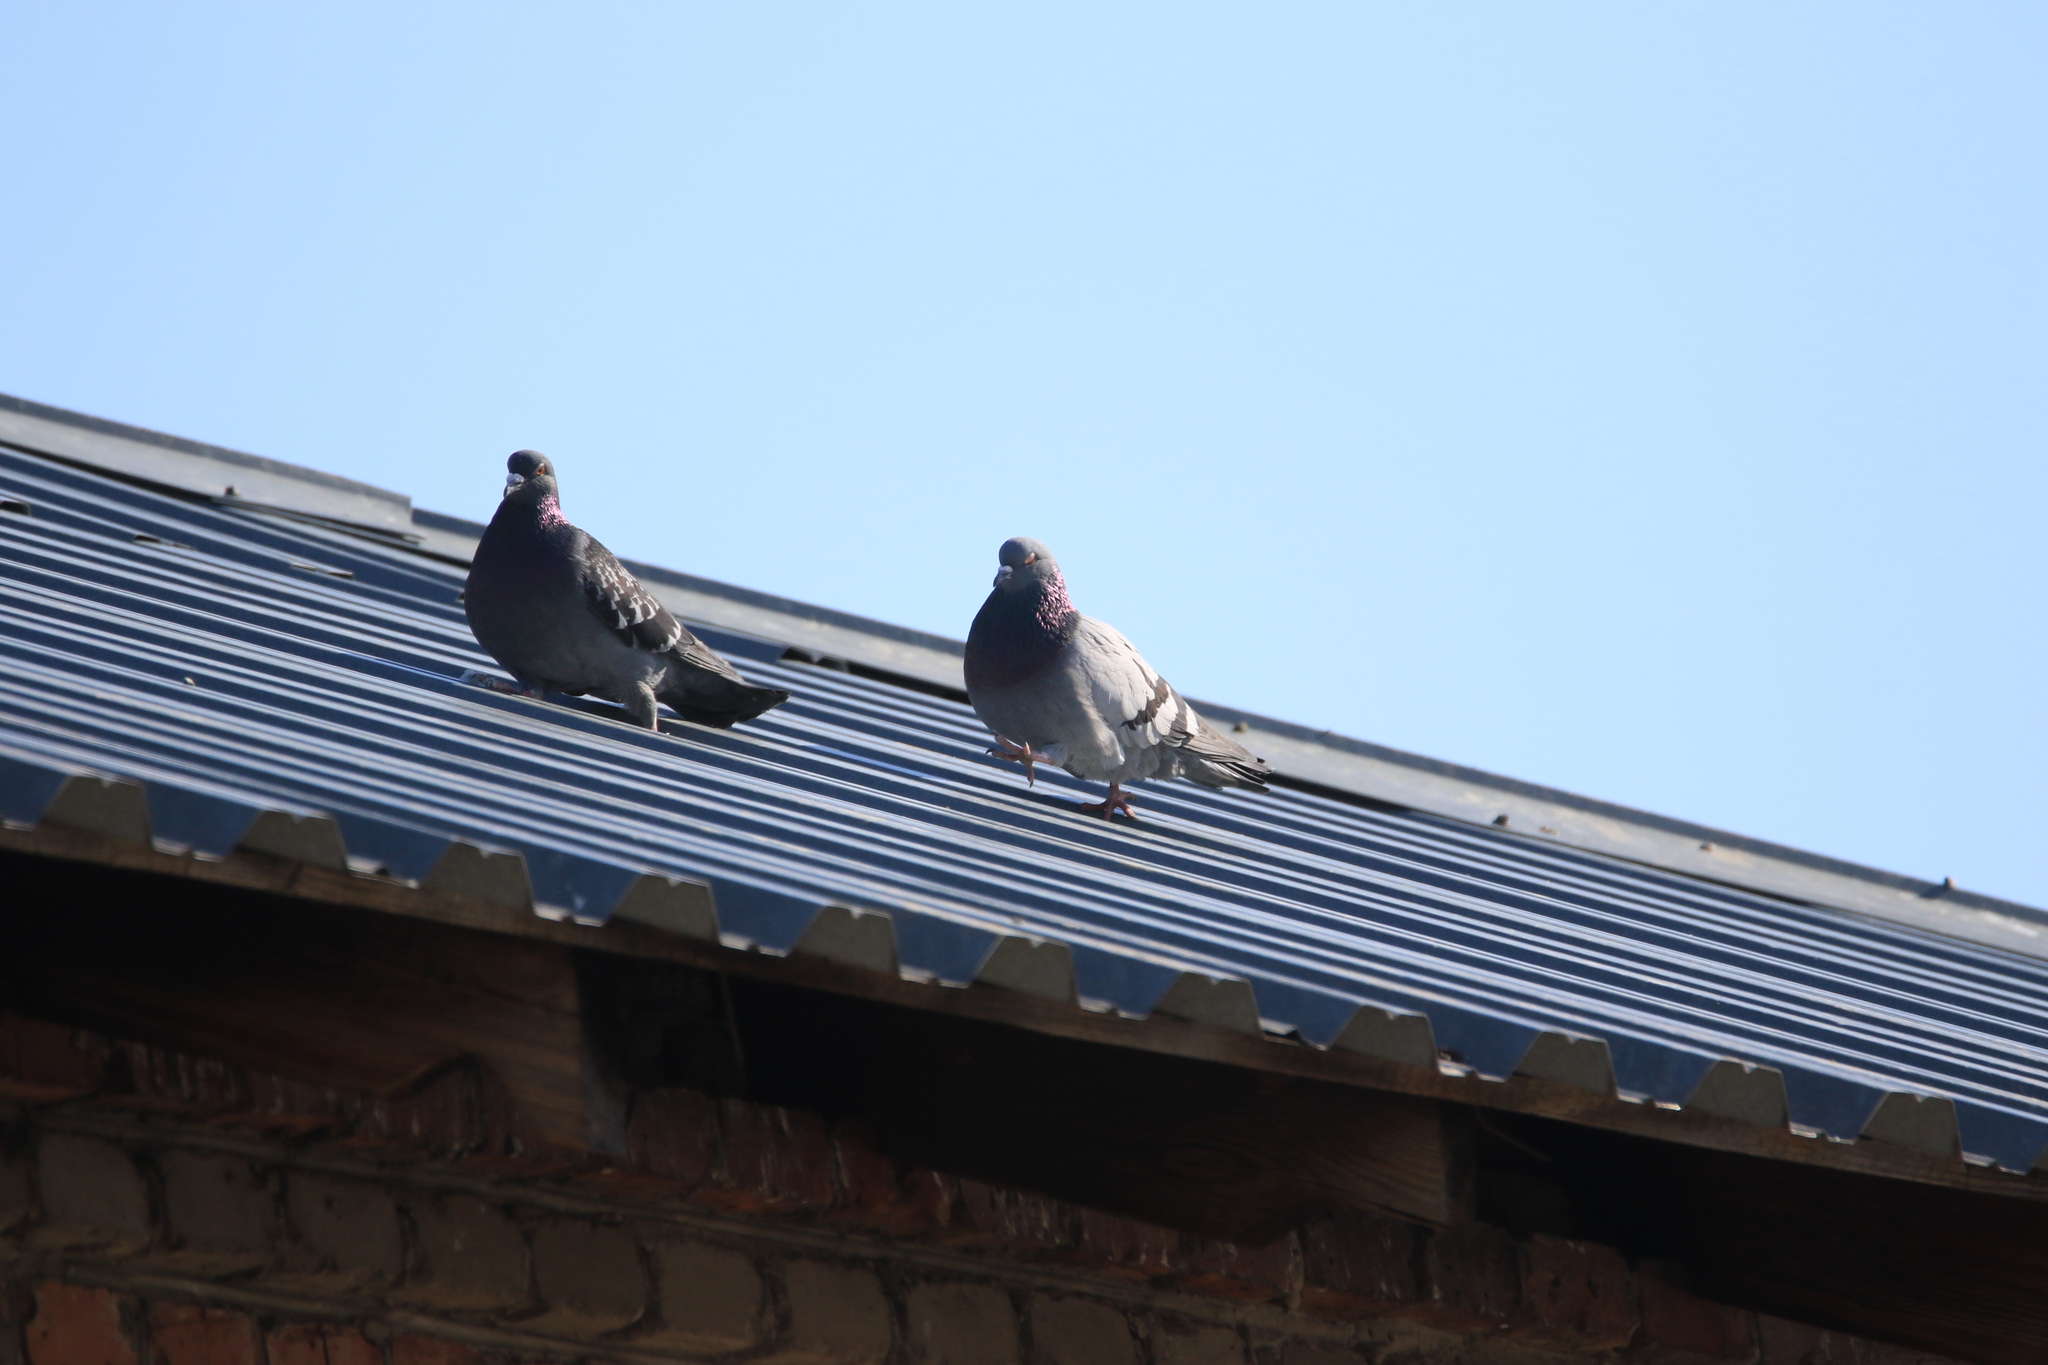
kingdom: Animalia
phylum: Chordata
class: Aves
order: Columbiformes
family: Columbidae
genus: Columba
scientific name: Columba livia
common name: Rock pigeon
